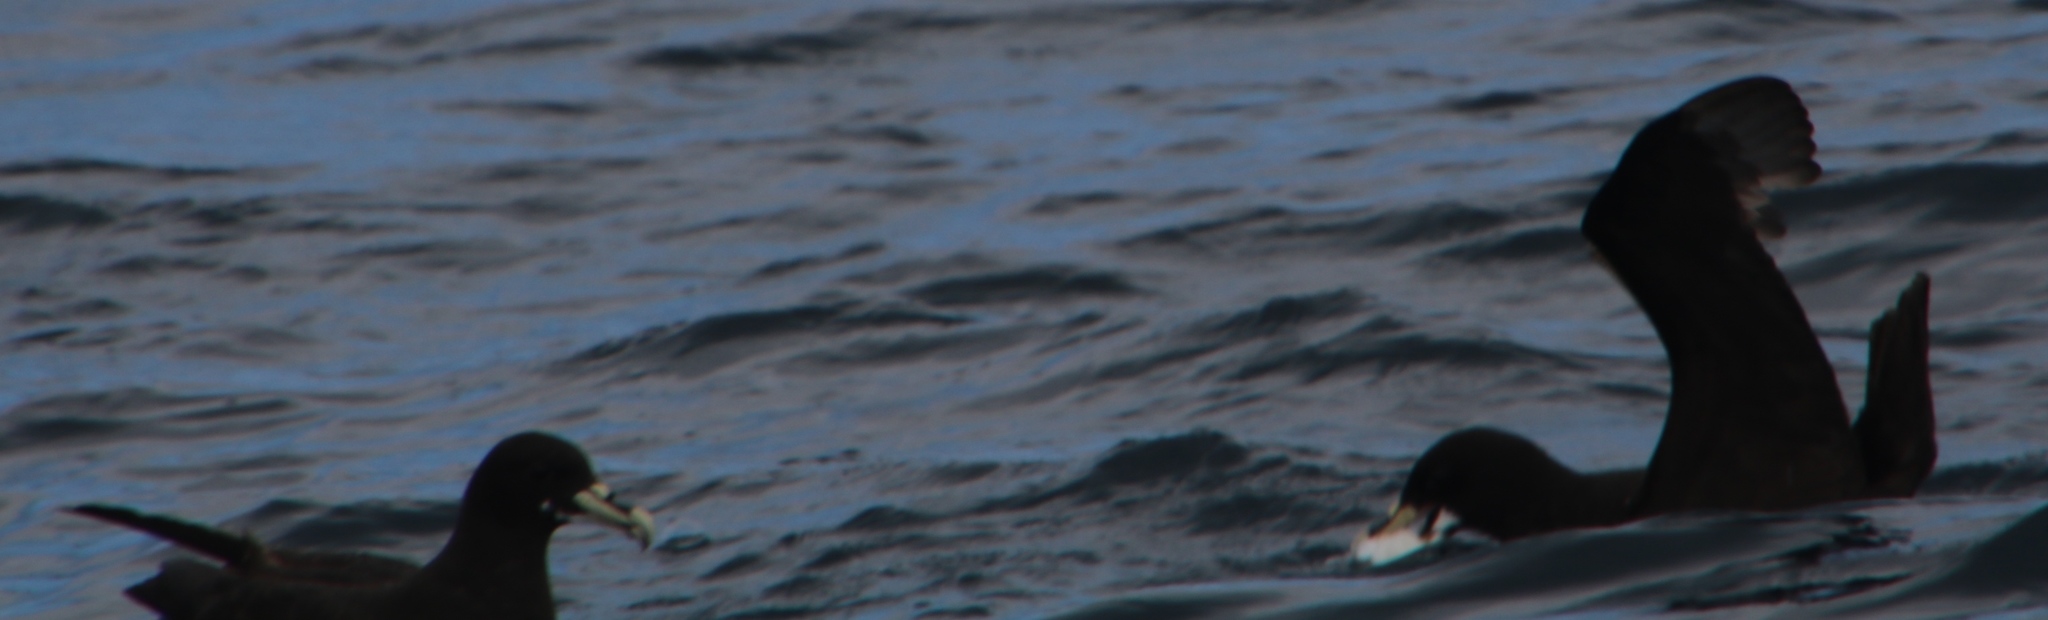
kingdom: Animalia
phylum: Chordata
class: Aves
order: Procellariiformes
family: Procellariidae
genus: Procellaria
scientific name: Procellaria aequinoctialis
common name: White-chinned petrel
